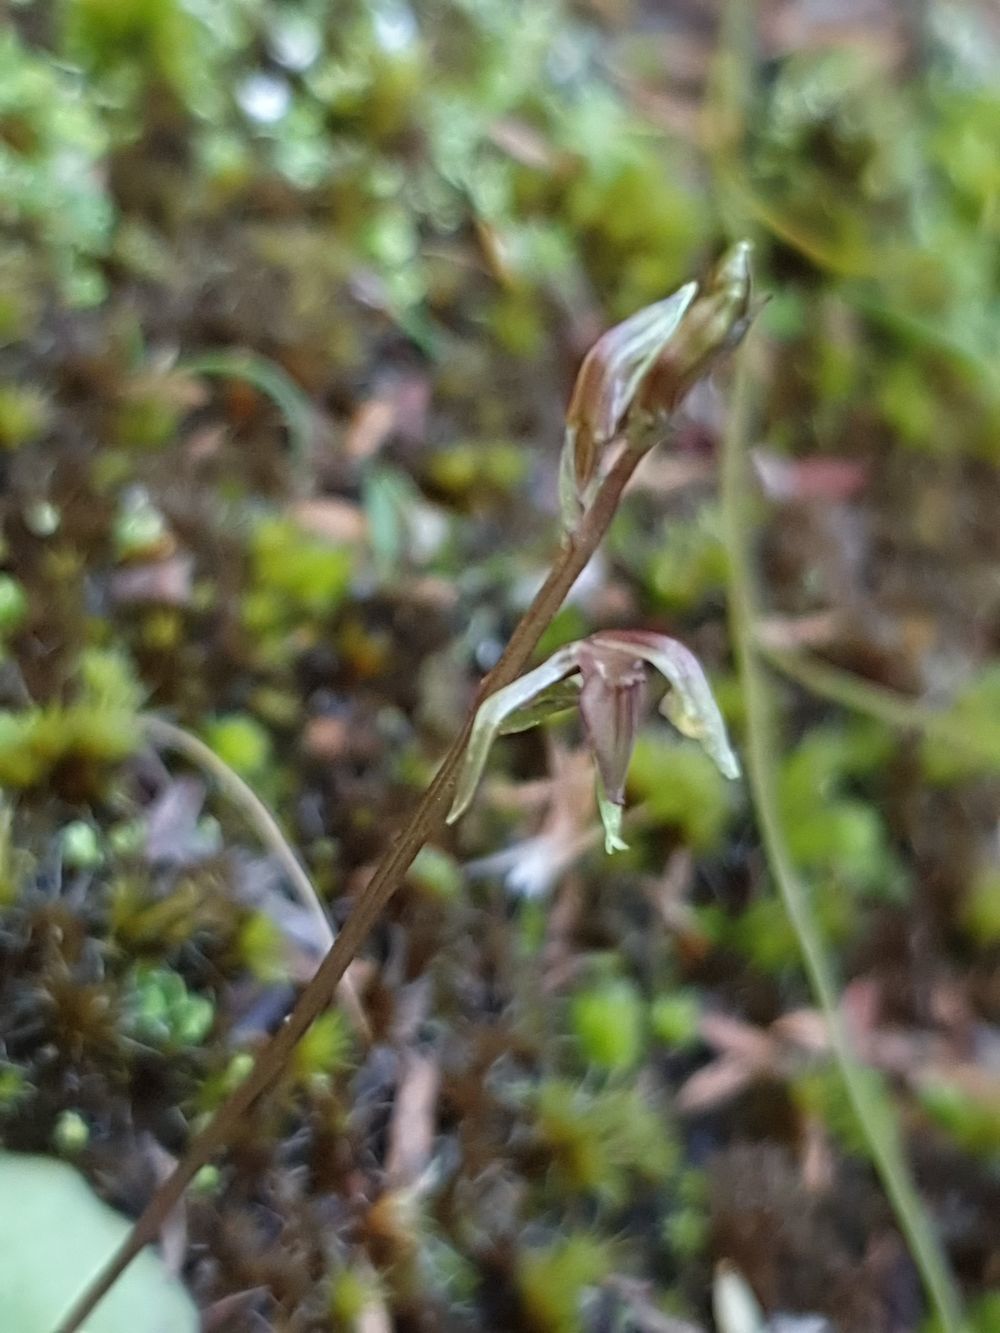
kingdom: Plantae
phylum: Tracheophyta
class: Liliopsida
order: Asparagales
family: Orchidaceae
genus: Cyrtostylis
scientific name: Cyrtostylis tenuissima
